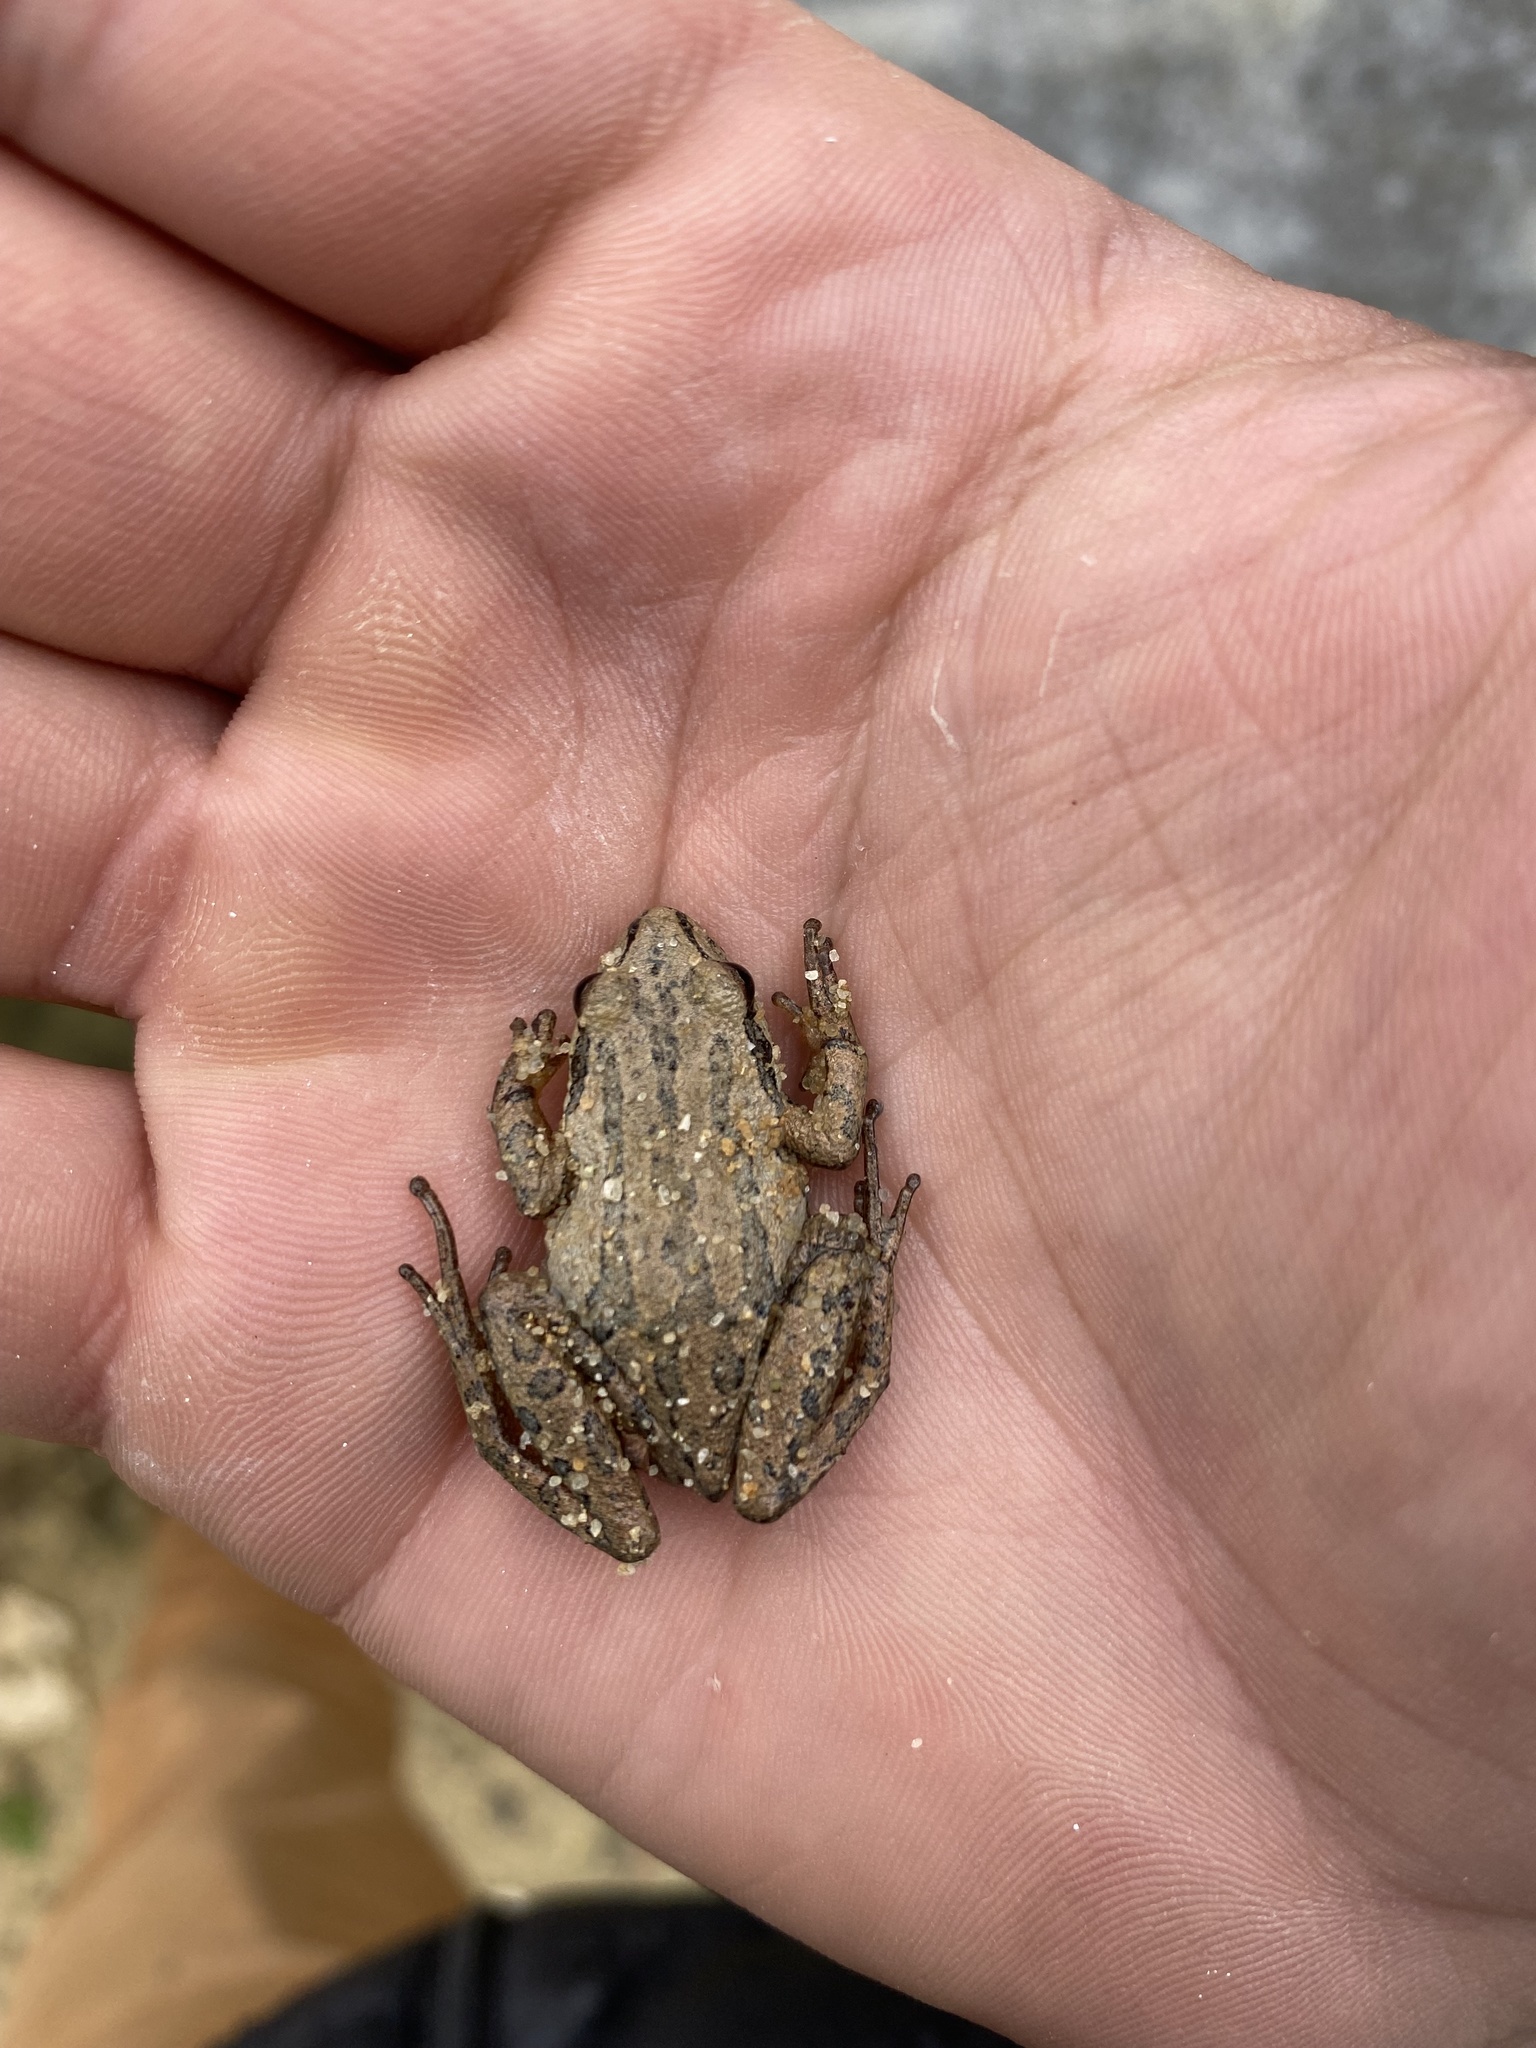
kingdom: Animalia
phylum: Chordata
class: Amphibia
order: Anura
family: Hylidae
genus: Pseudacris
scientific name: Pseudacris feriarum
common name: Upland chorus frog
